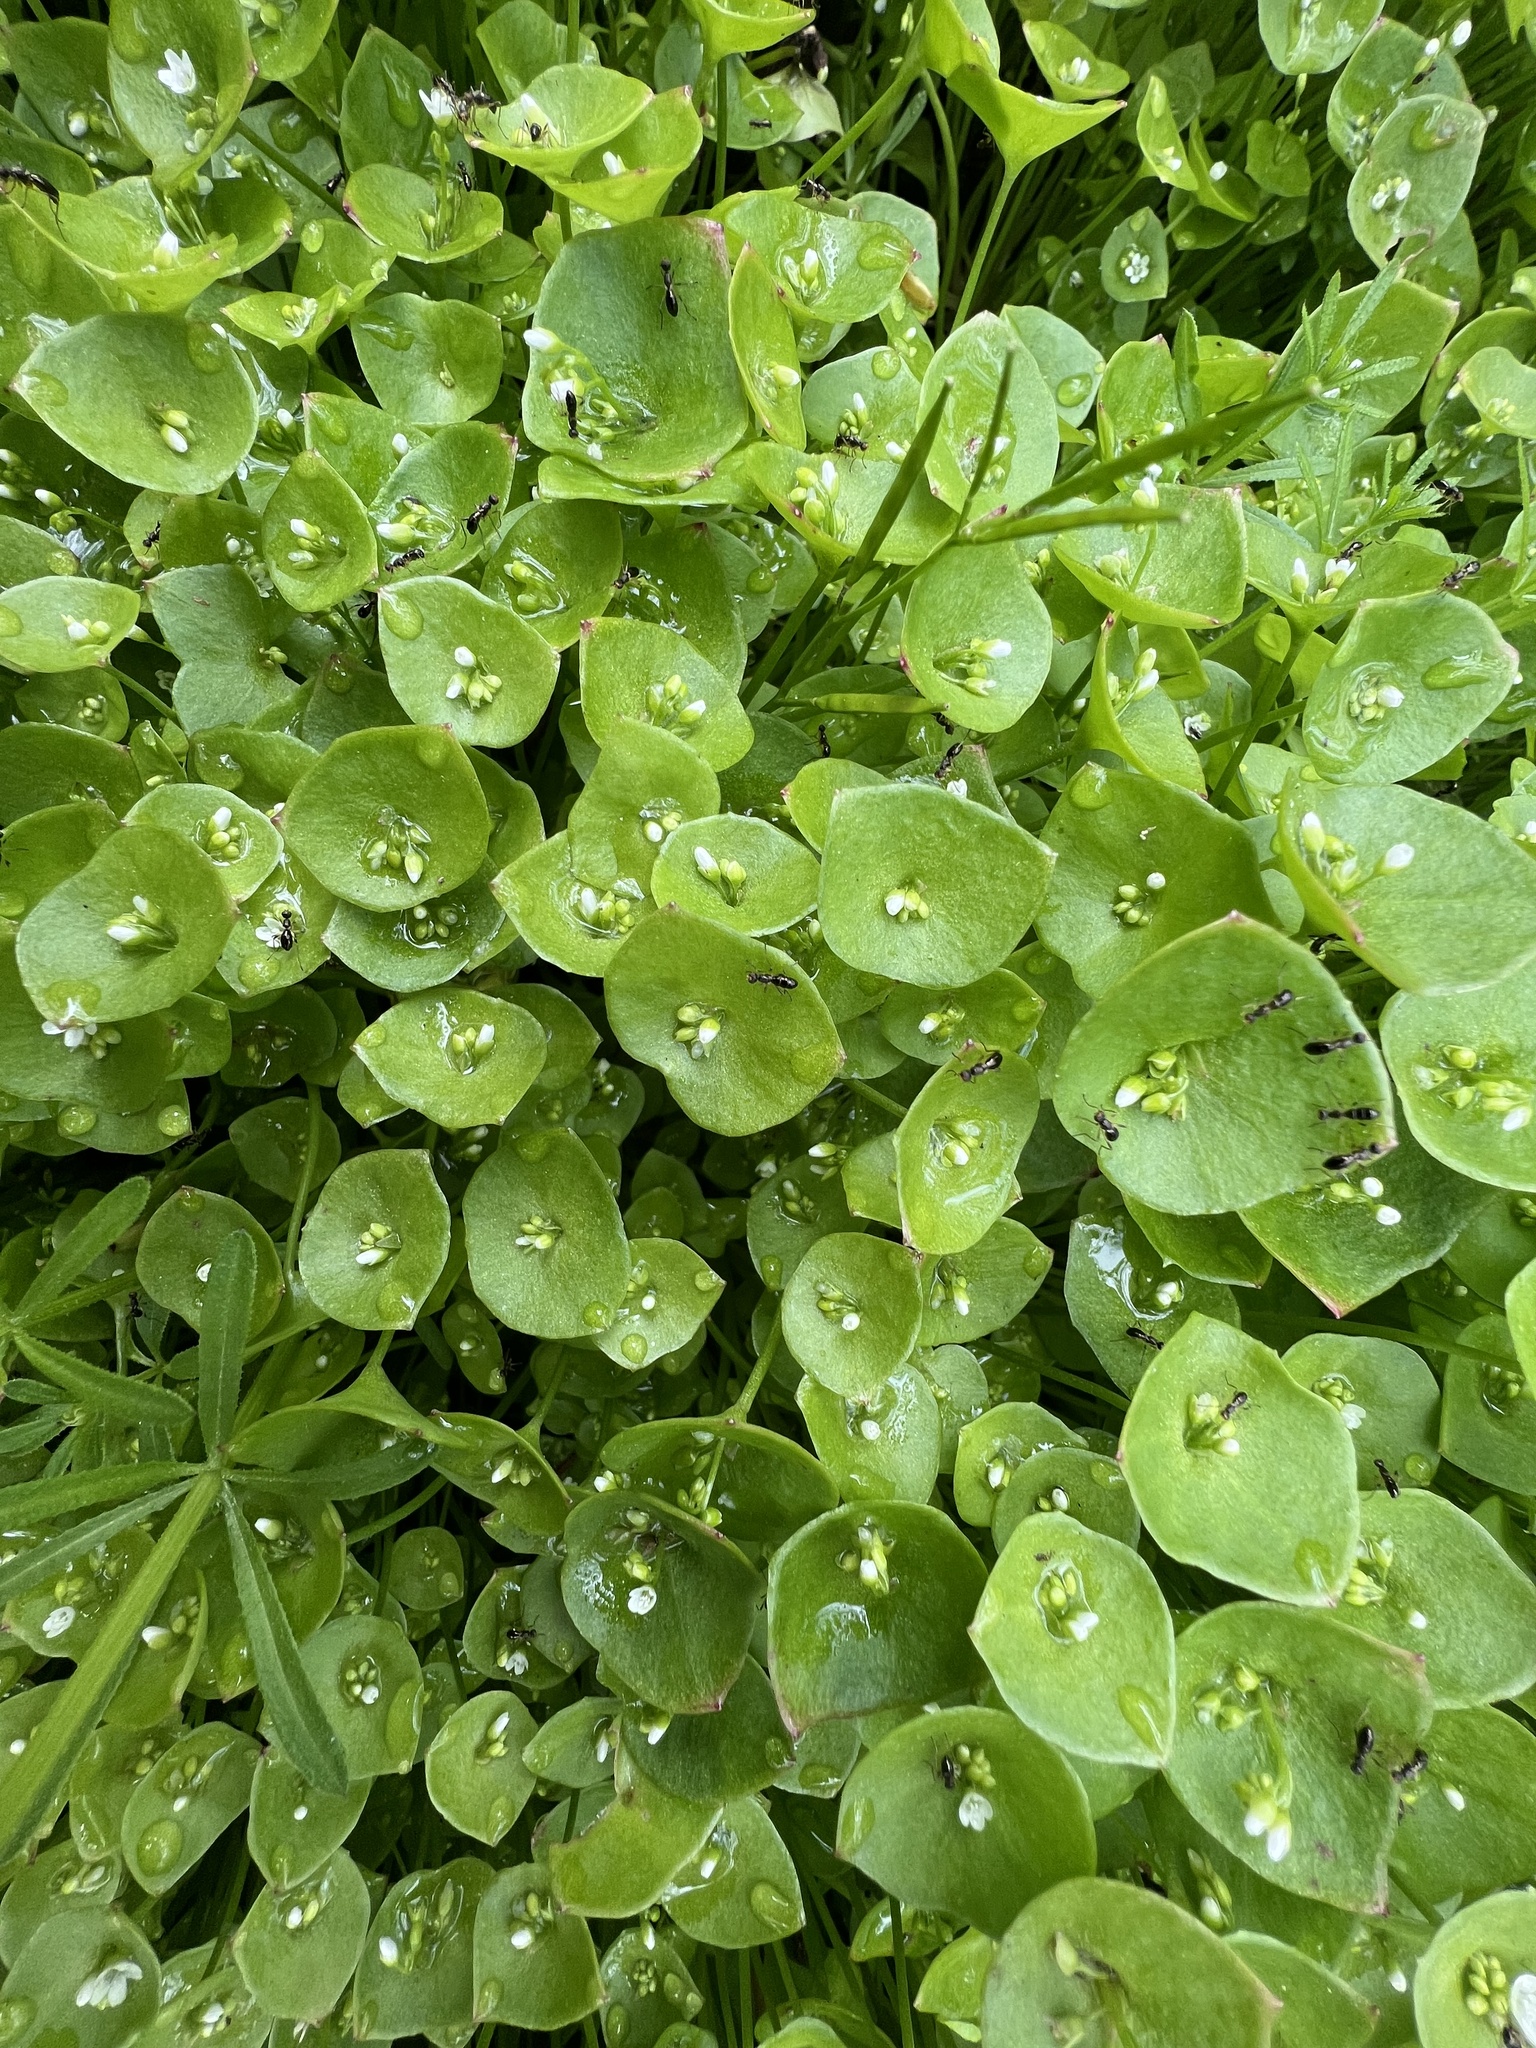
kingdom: Plantae
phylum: Tracheophyta
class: Magnoliopsida
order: Caryophyllales
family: Montiaceae
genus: Claytonia
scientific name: Claytonia perfoliata
